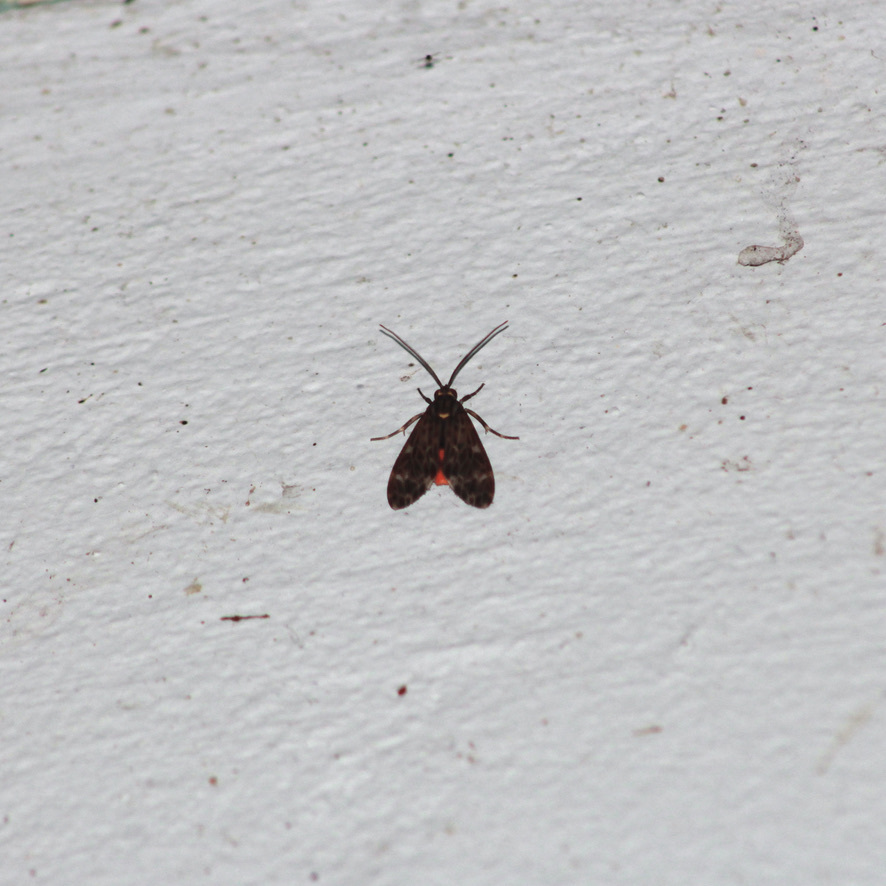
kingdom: Animalia
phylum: Arthropoda
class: Insecta
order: Lepidoptera
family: Erebidae
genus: Eucereon
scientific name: Eucereon metoidesis
